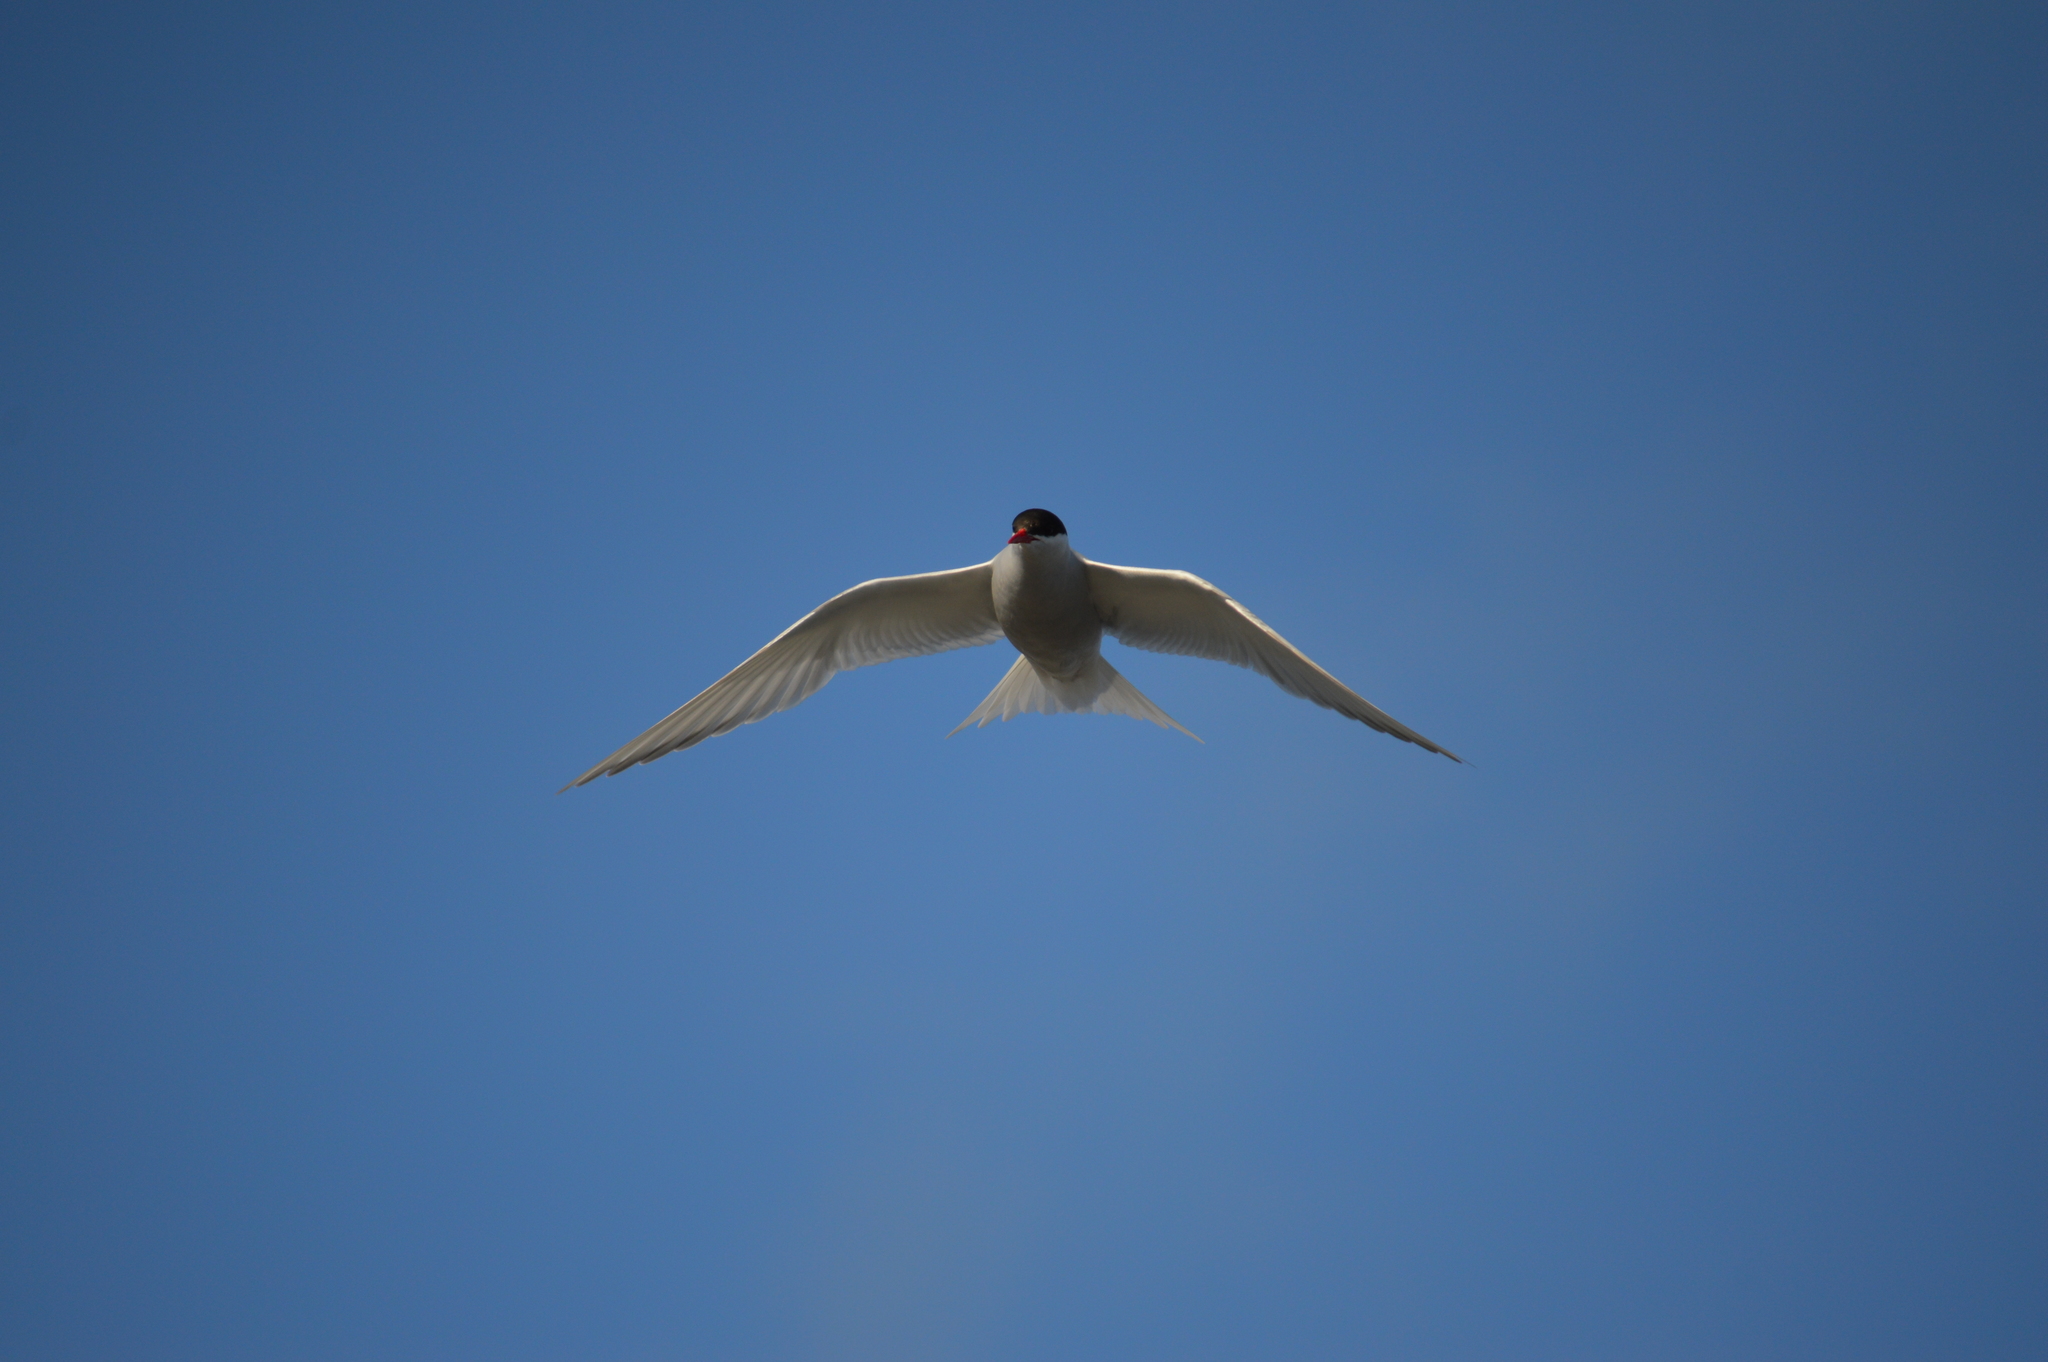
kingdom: Animalia
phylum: Chordata
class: Aves
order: Charadriiformes
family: Laridae
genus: Sterna
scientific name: Sterna vittata
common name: Antarctic tern
